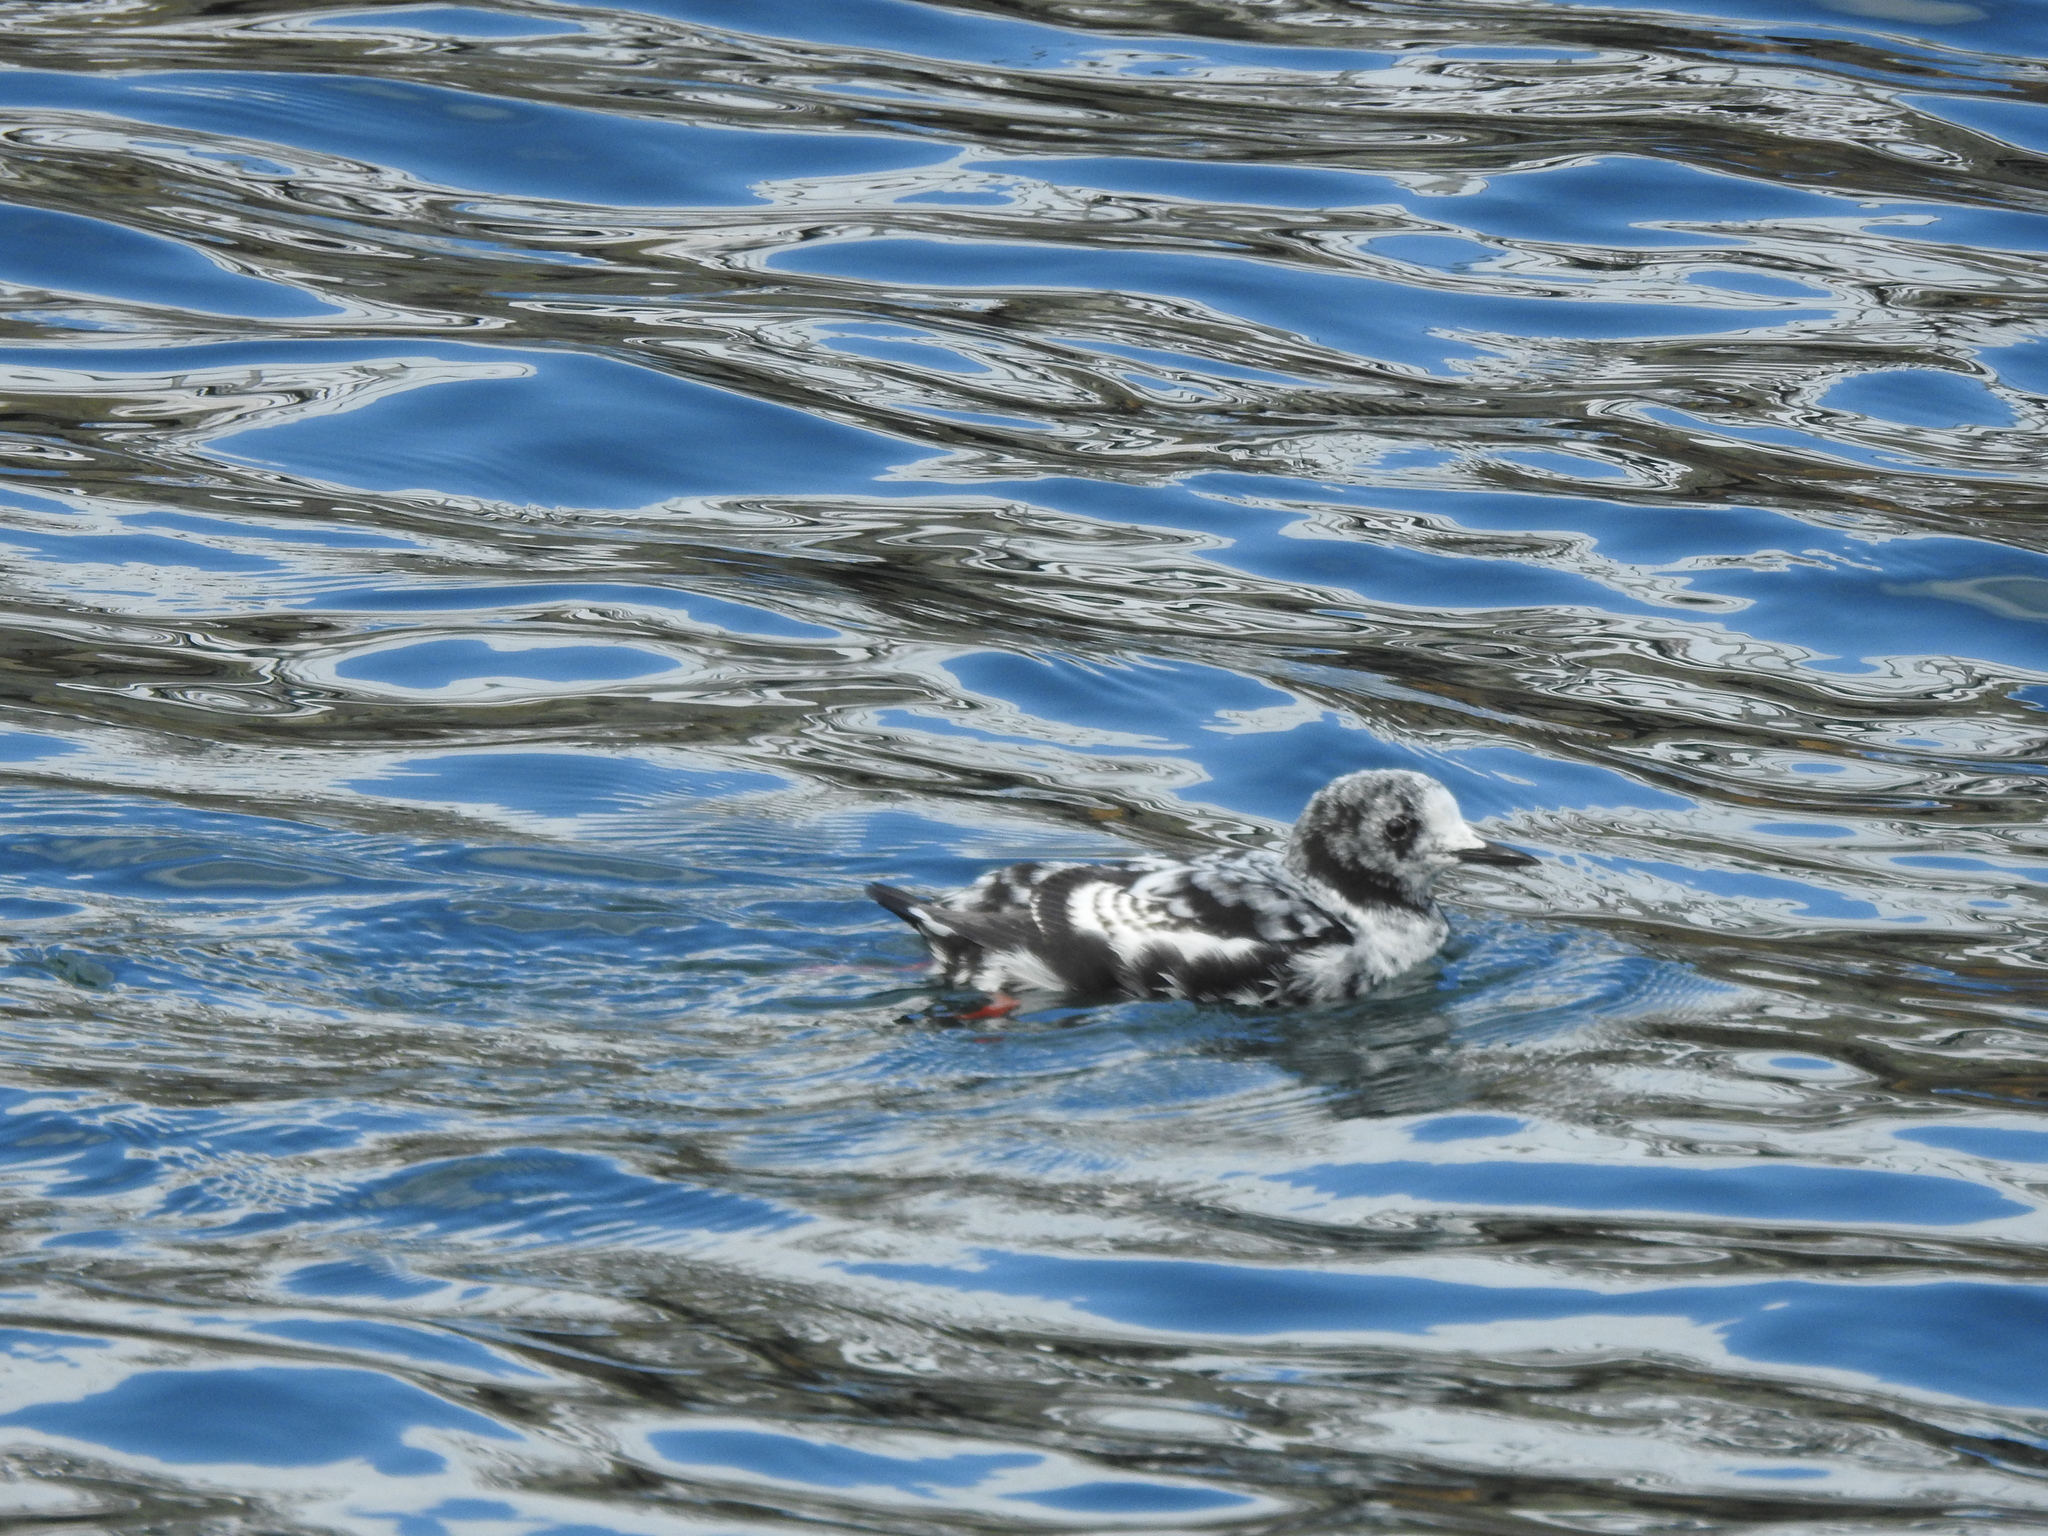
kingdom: Animalia
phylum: Chordata
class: Aves
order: Charadriiformes
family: Alcidae
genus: Cepphus
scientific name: Cepphus grylle
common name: Black guillemot
